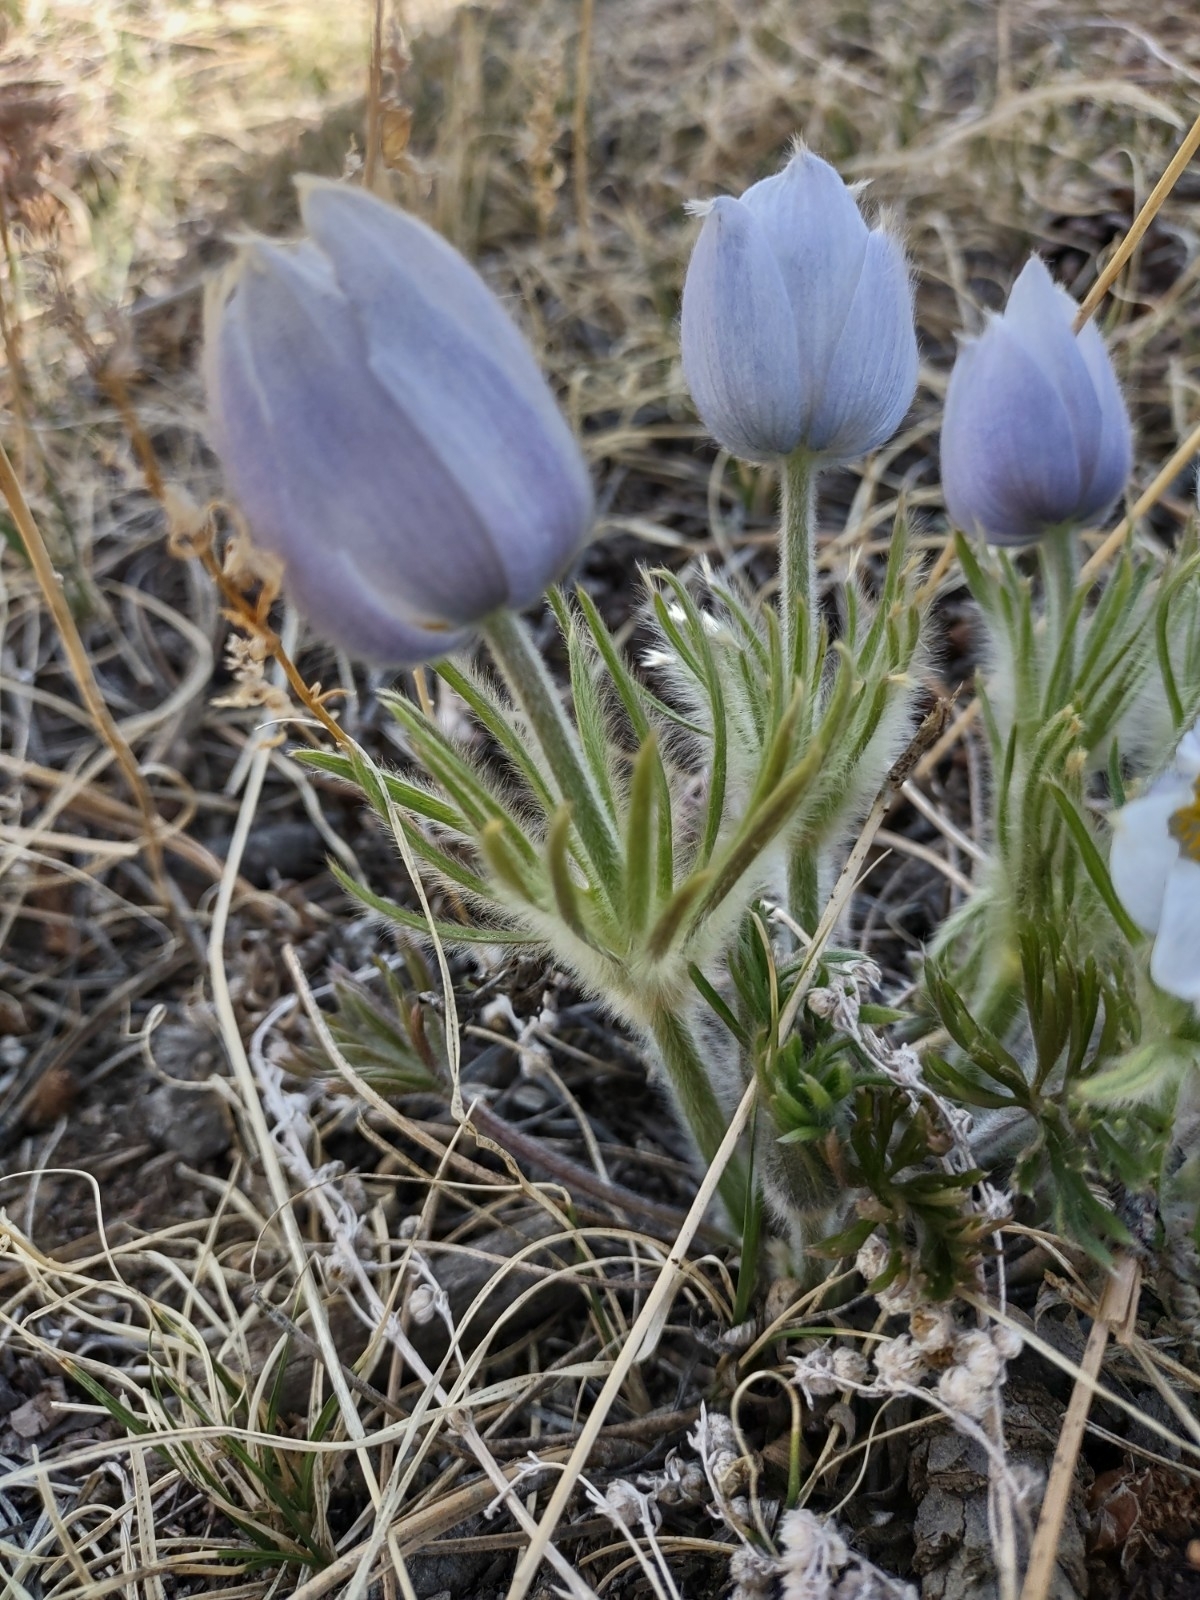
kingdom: Plantae
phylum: Tracheophyta
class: Magnoliopsida
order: Ranunculales
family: Ranunculaceae
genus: Pulsatilla
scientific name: Pulsatilla nuttalliana
